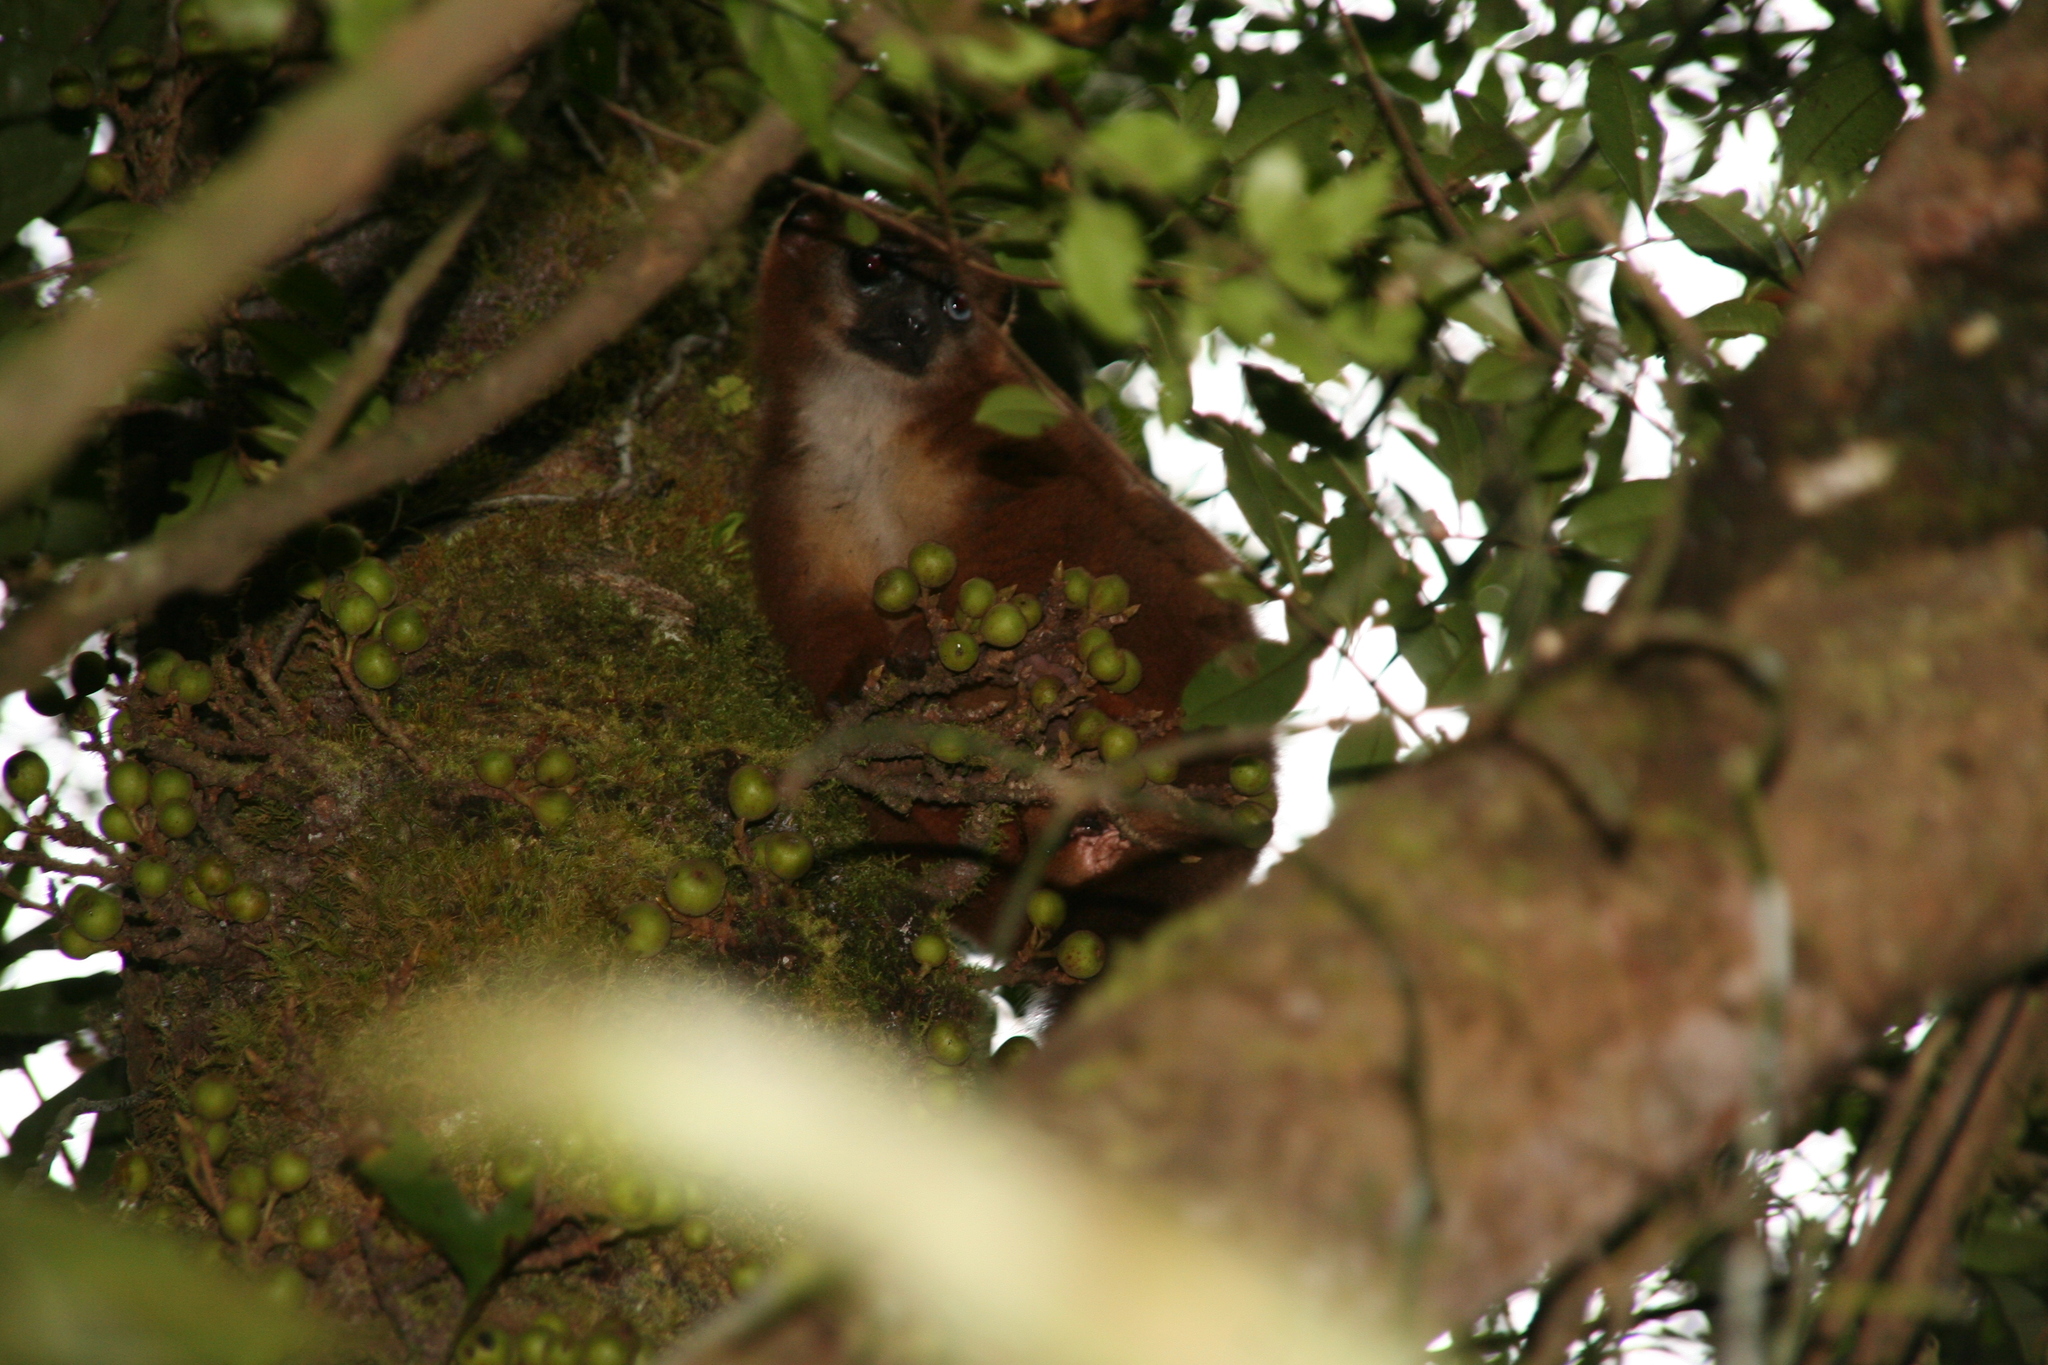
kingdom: Animalia
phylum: Chordata
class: Mammalia
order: Primates
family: Lemuridae
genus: Eulemur
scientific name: Eulemur rubriventer
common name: Red-bellied lemur
